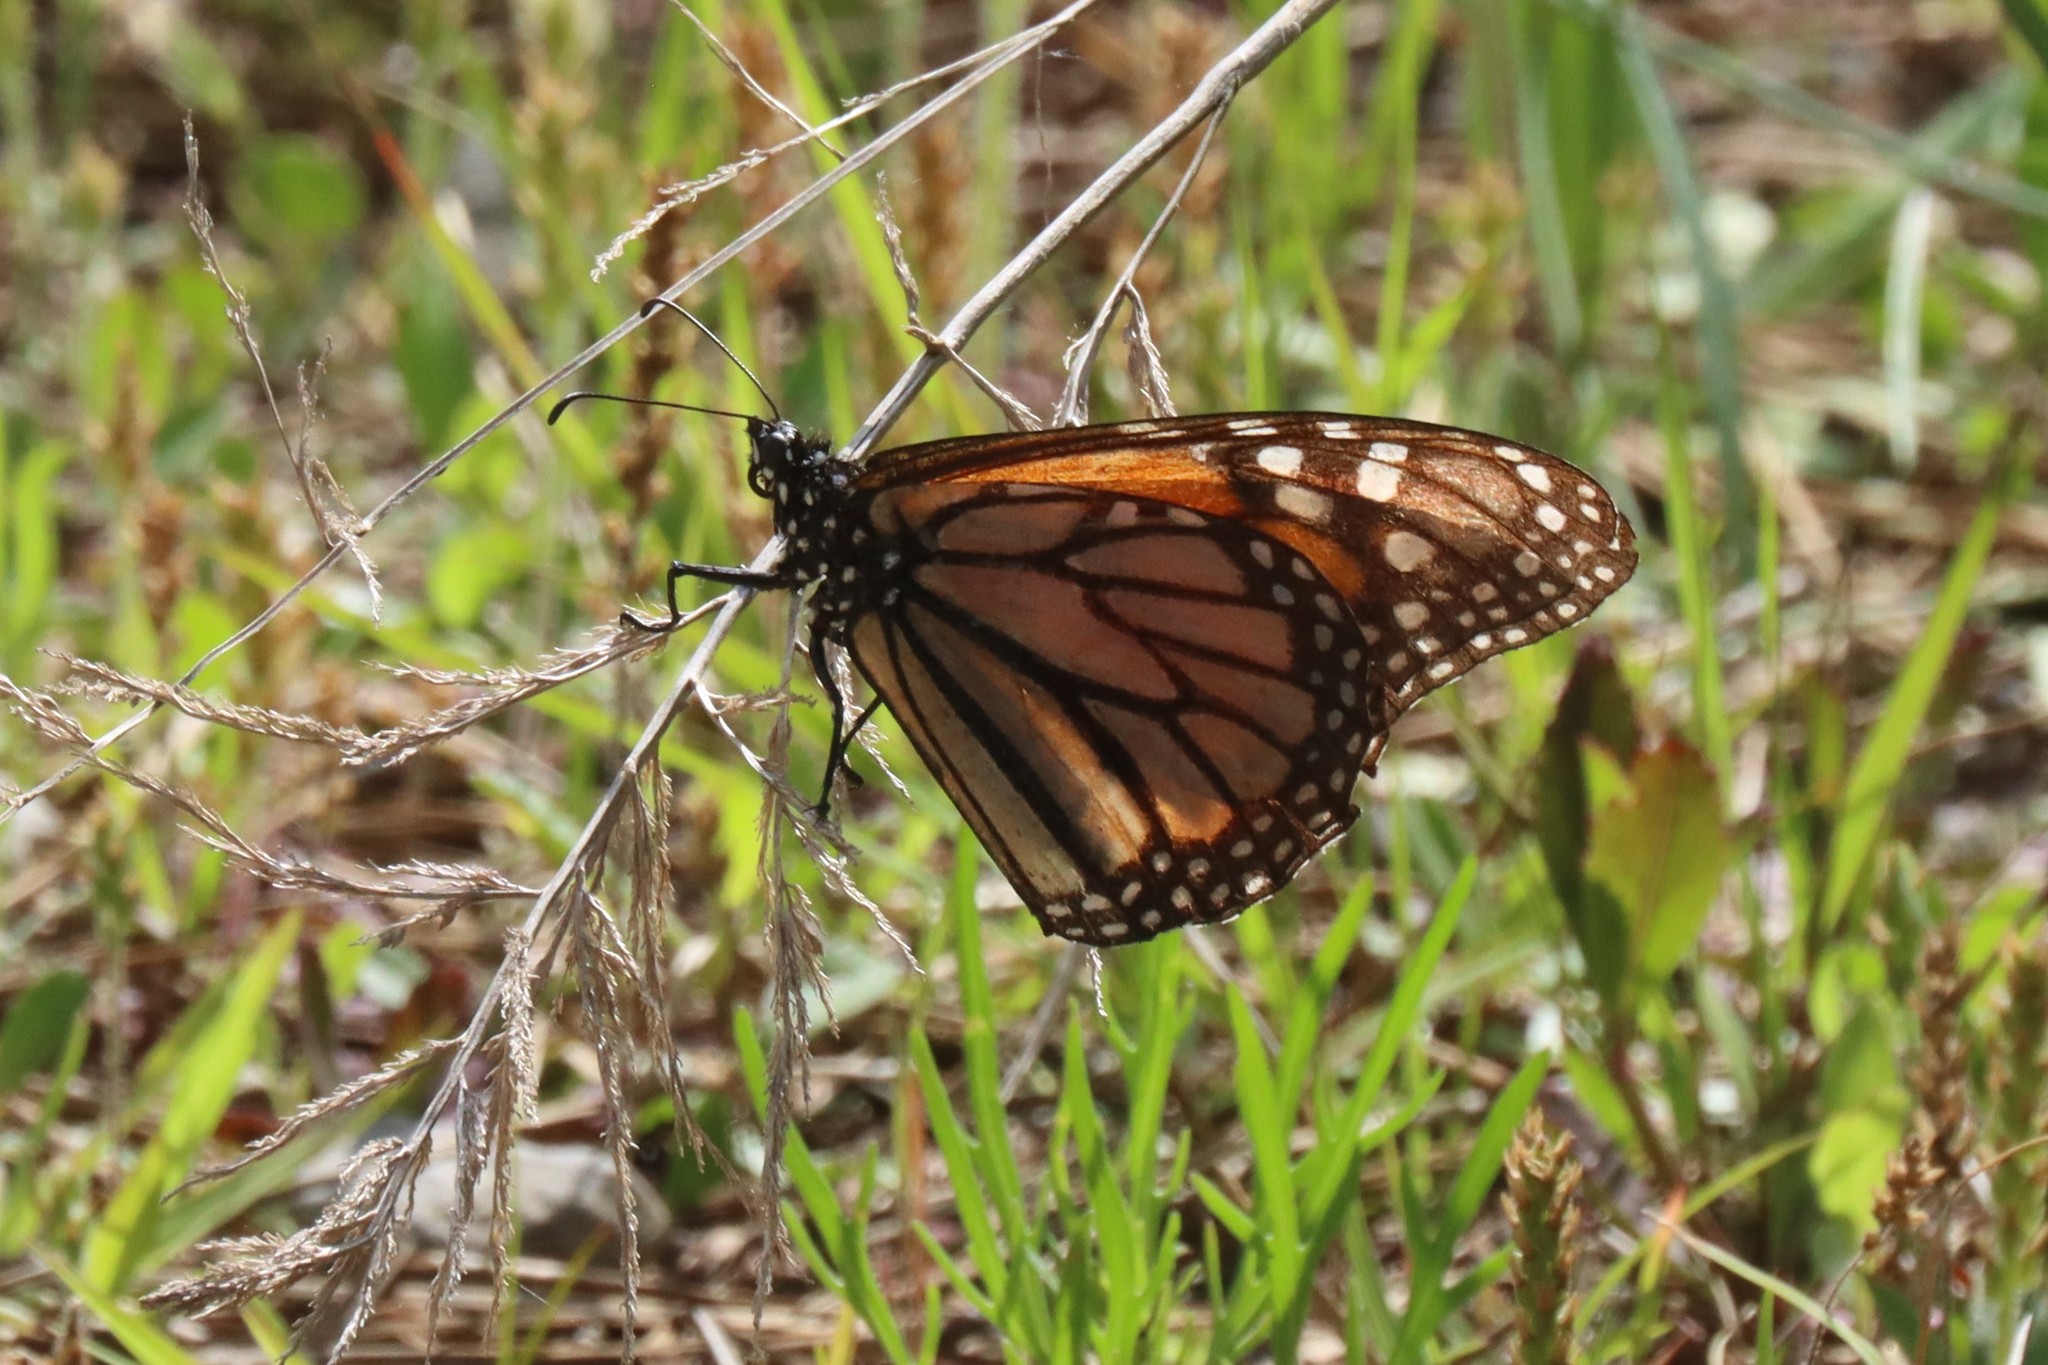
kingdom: Animalia
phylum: Arthropoda
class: Insecta
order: Lepidoptera
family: Nymphalidae
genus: Danaus
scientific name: Danaus plexippus
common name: Monarch
